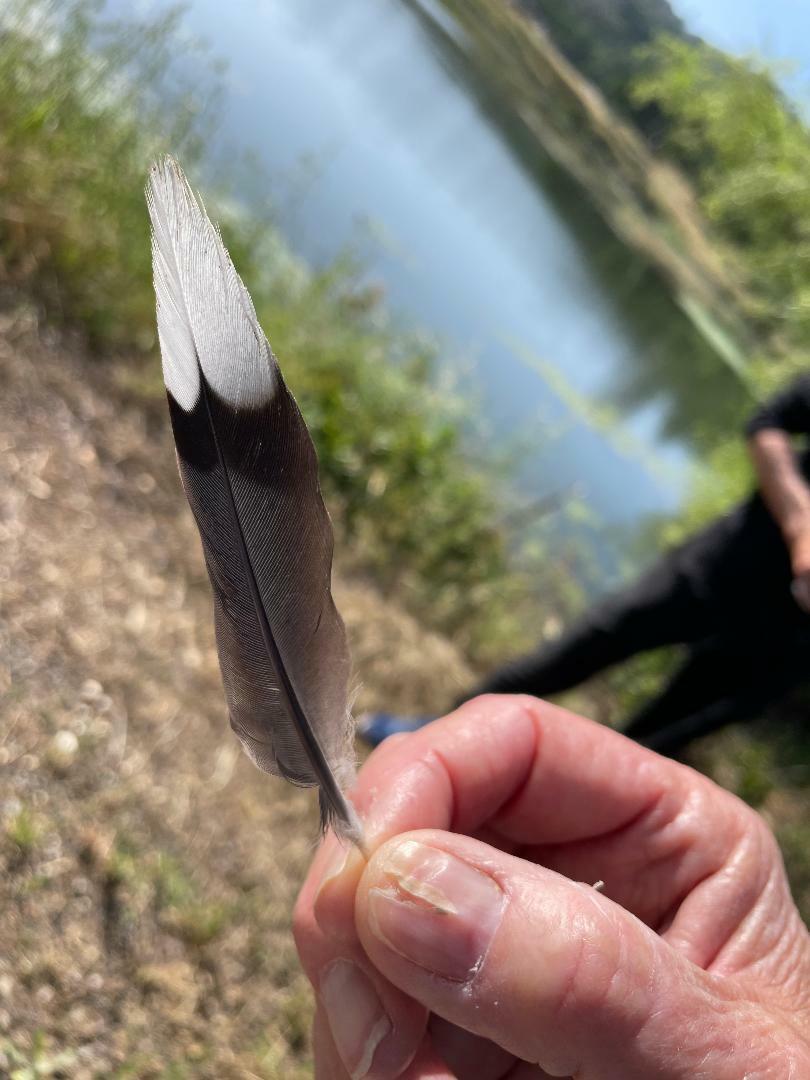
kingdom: Animalia
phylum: Chordata
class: Aves
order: Columbiformes
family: Columbidae
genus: Zenaida
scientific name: Zenaida macroura
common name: Mourning dove
